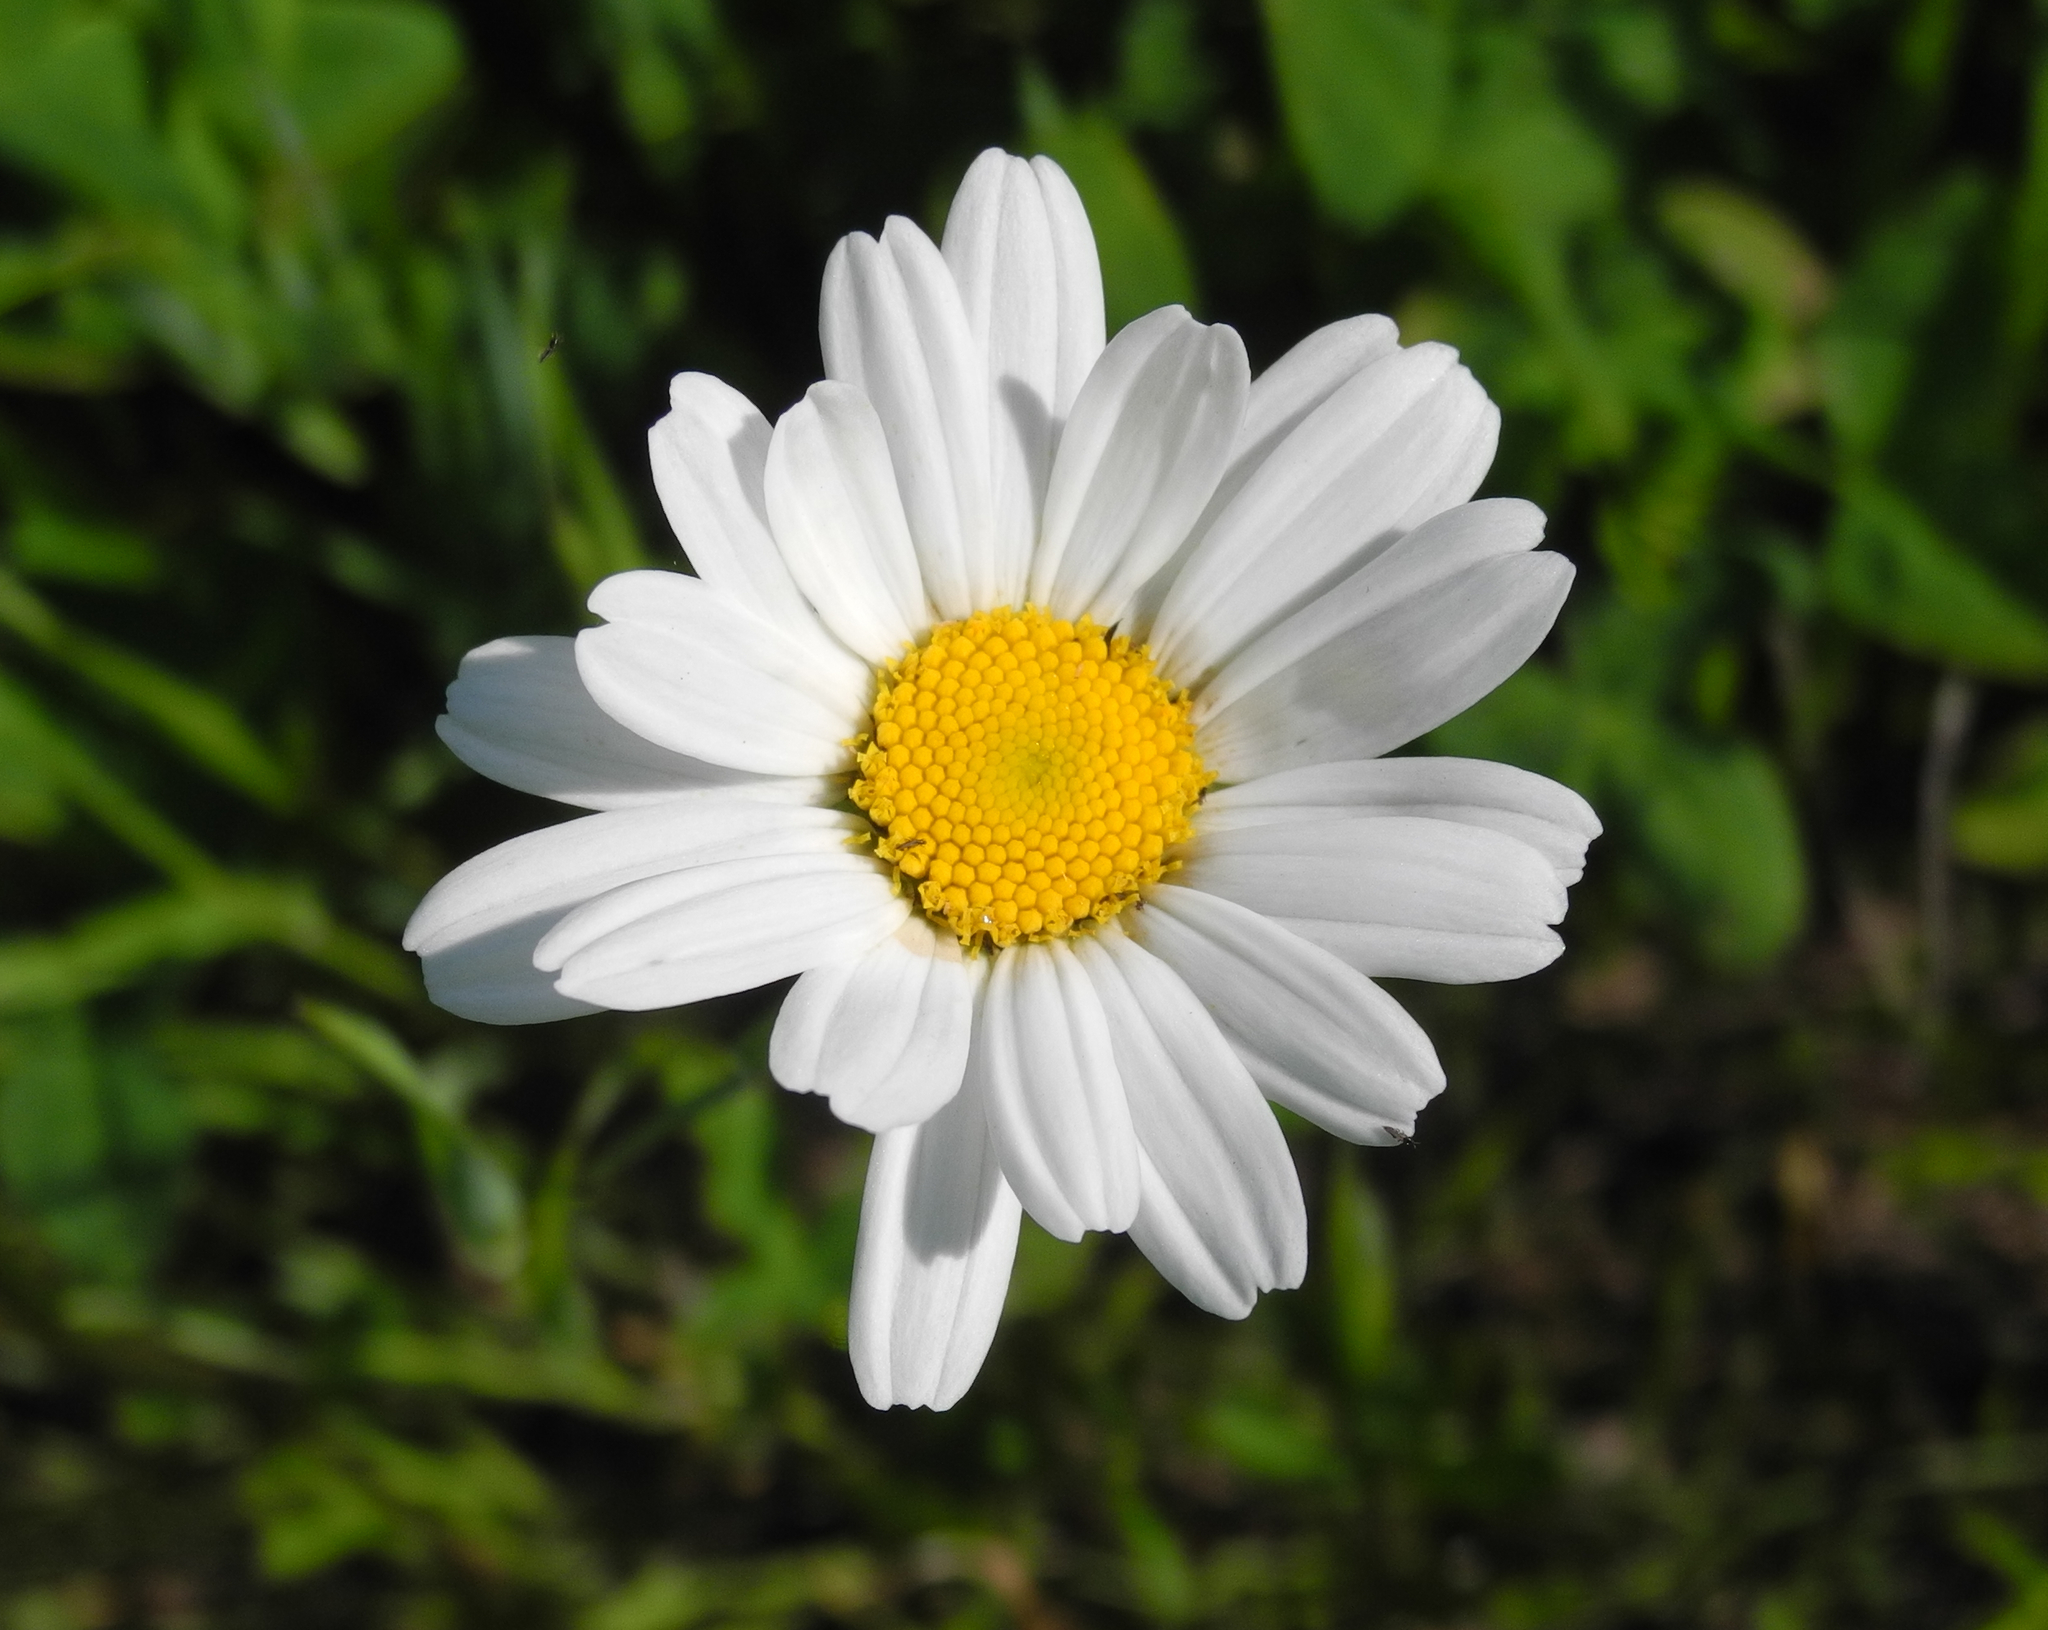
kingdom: Plantae
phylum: Tracheophyta
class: Magnoliopsida
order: Asterales
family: Asteraceae
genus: Leucanthemum
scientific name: Leucanthemum vulgare
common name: Oxeye daisy
